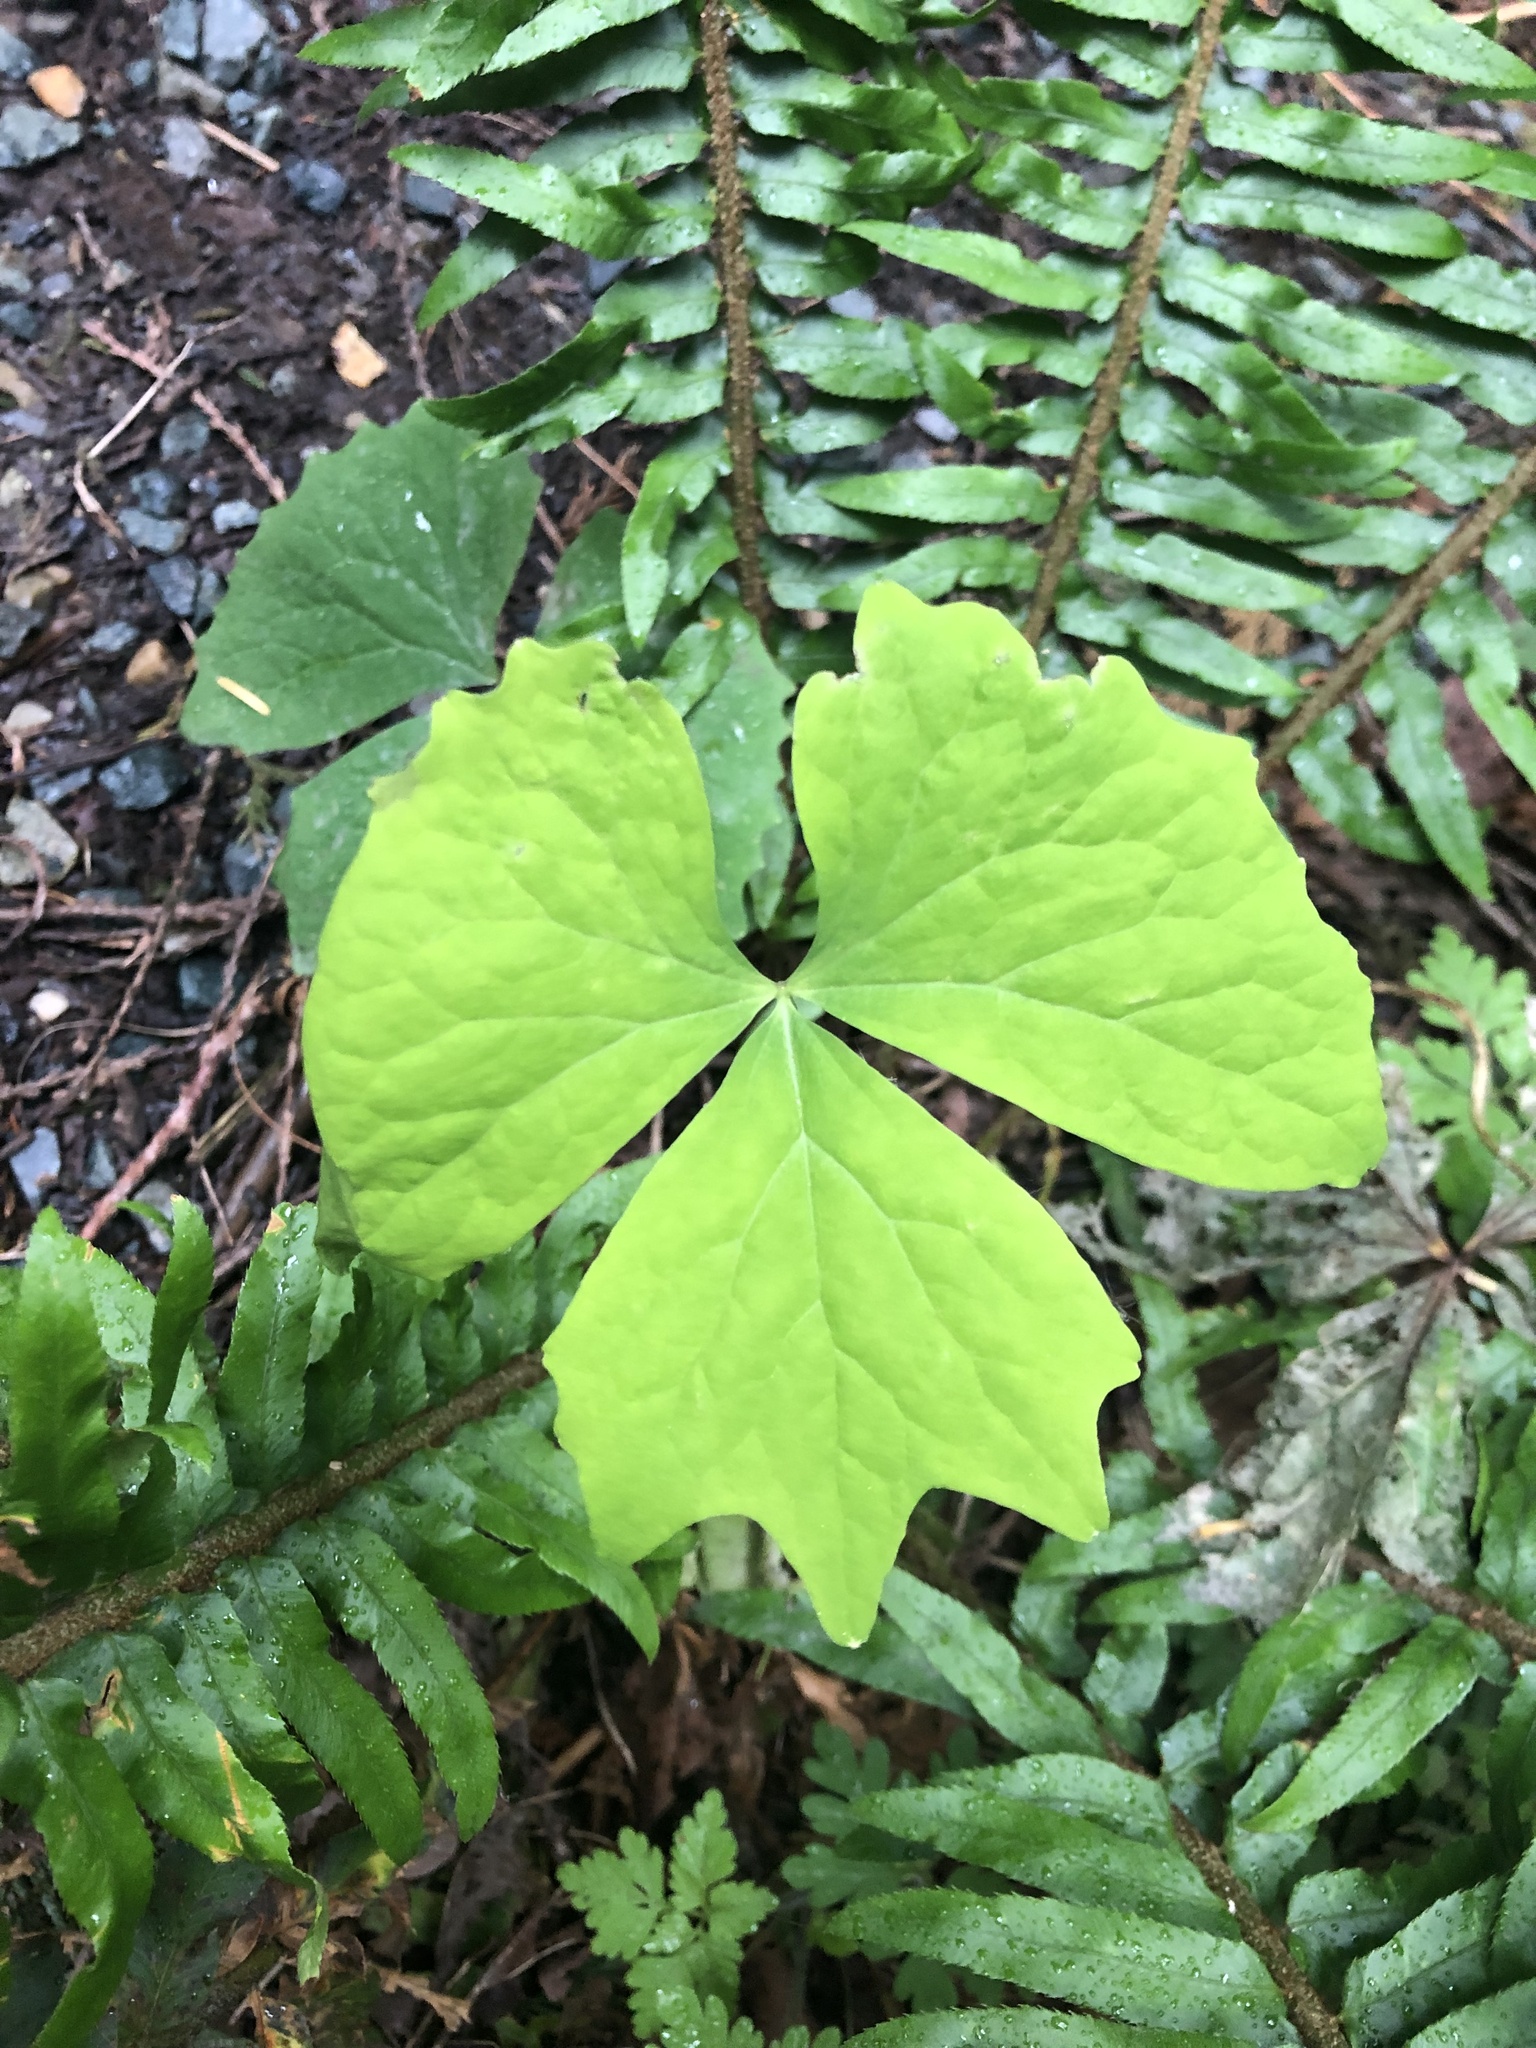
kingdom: Plantae
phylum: Tracheophyta
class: Magnoliopsida
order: Ranunculales
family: Berberidaceae
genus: Achlys
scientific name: Achlys triphylla
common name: Vanilla-leaf
